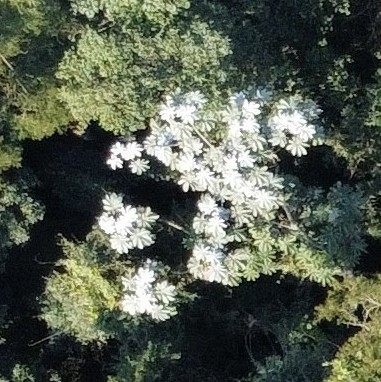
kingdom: Plantae
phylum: Tracheophyta
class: Magnoliopsida
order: Rosales
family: Urticaceae
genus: Cecropia
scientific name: Cecropia hololeuca
